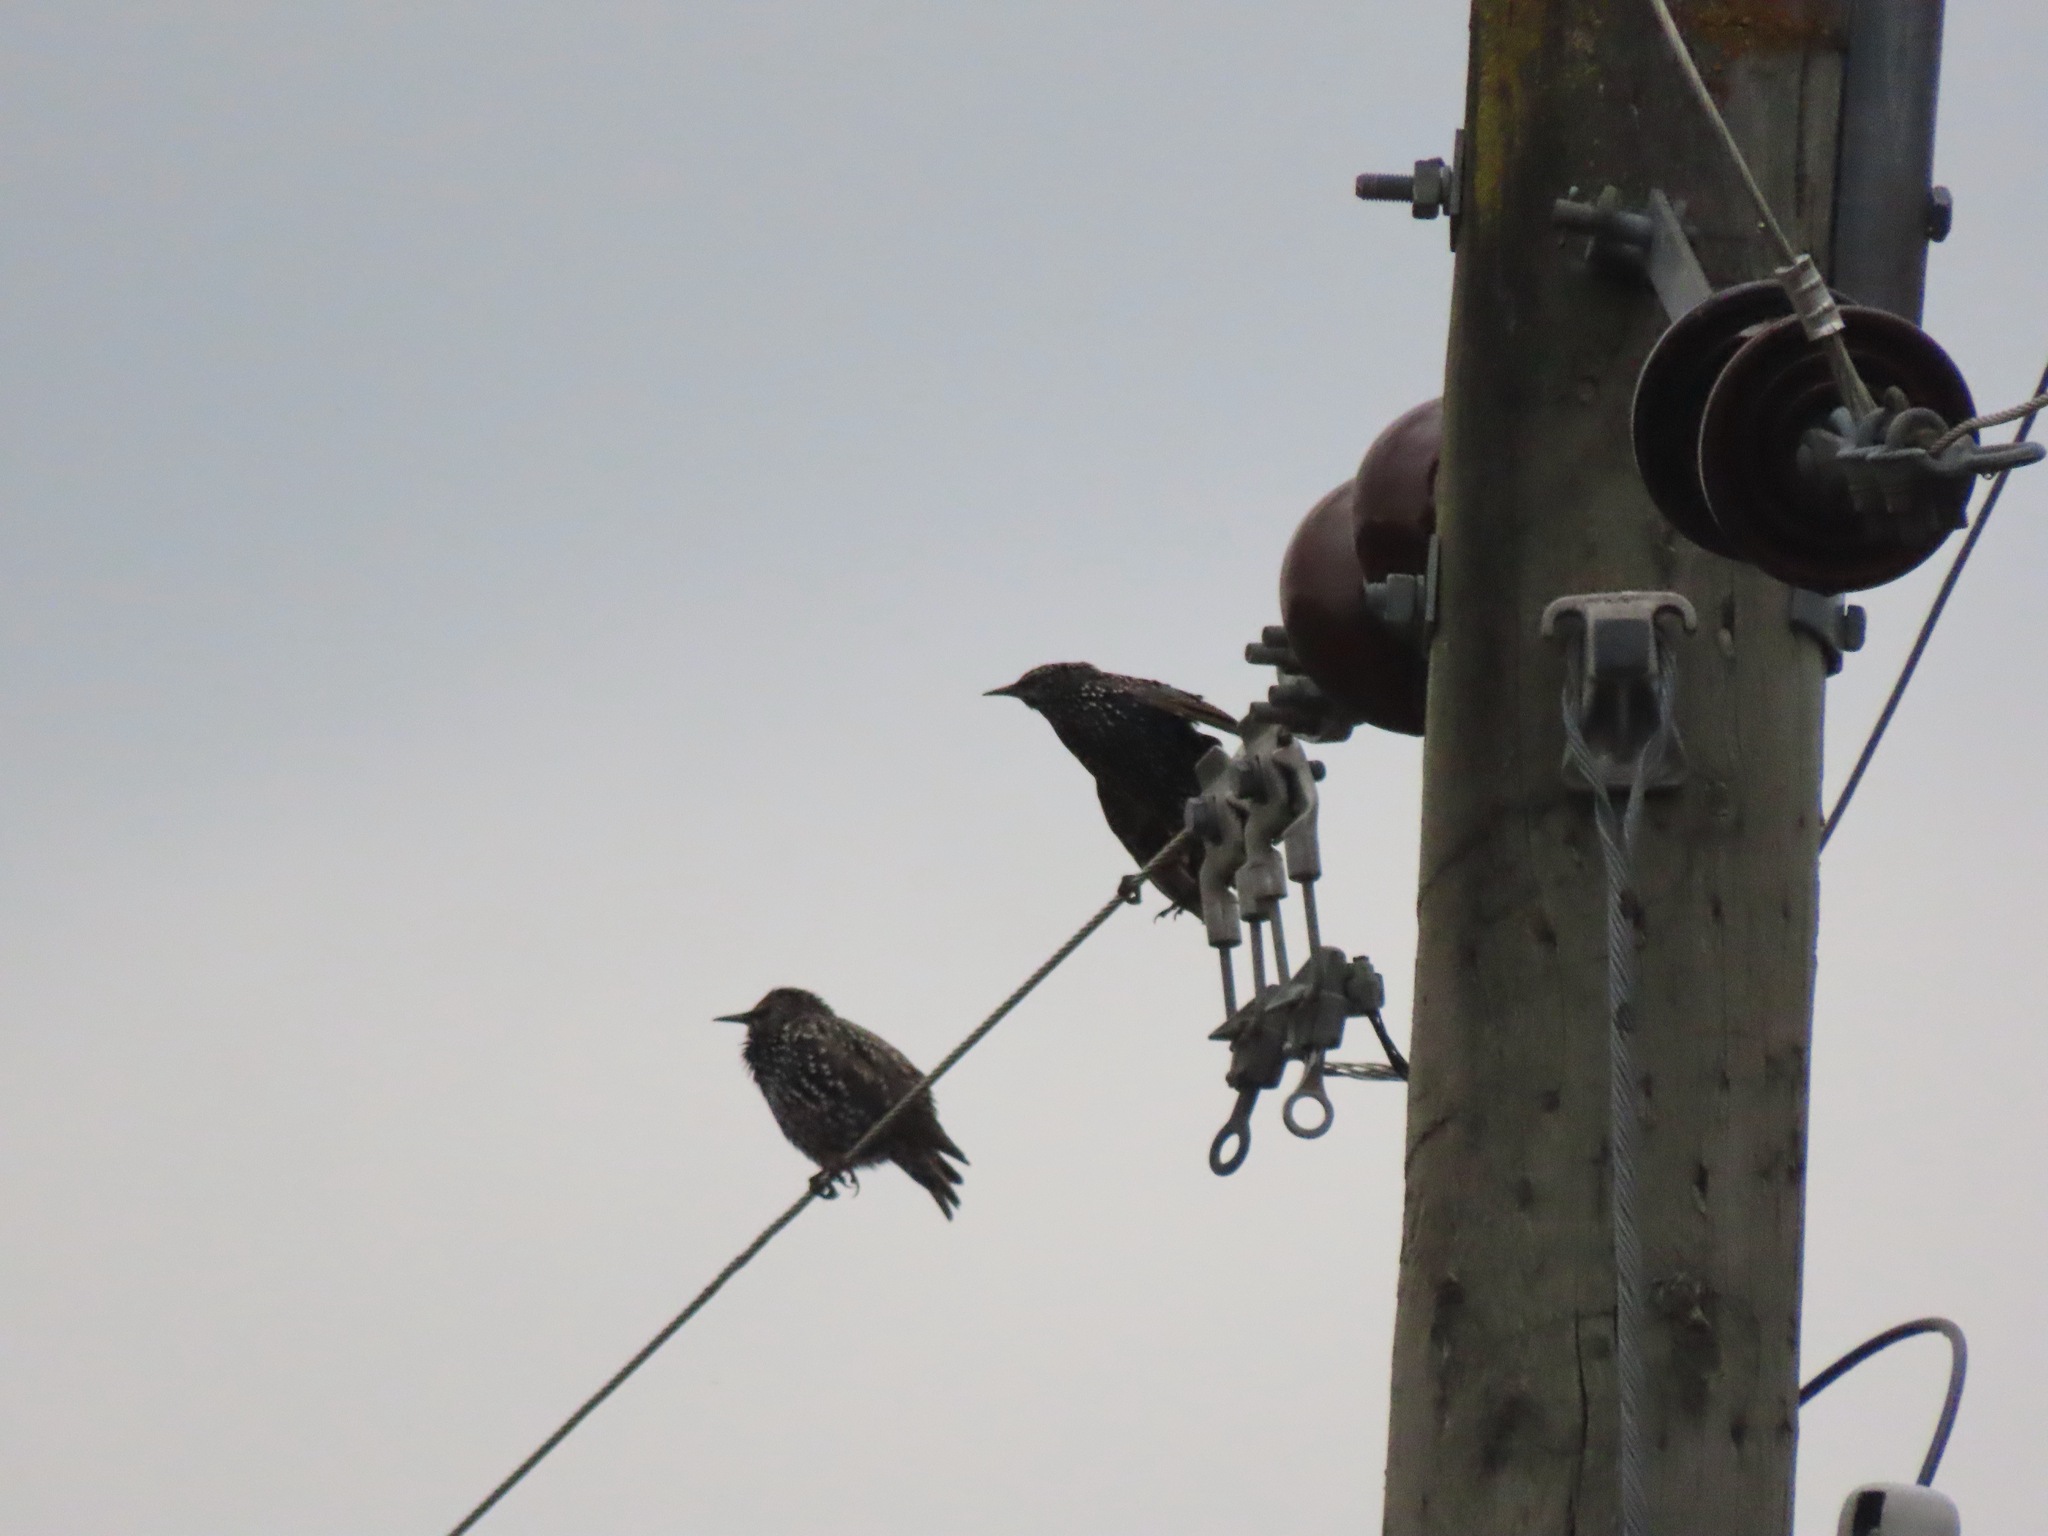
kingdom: Animalia
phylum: Chordata
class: Aves
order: Passeriformes
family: Sturnidae
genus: Sturnus
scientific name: Sturnus vulgaris
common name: Common starling
